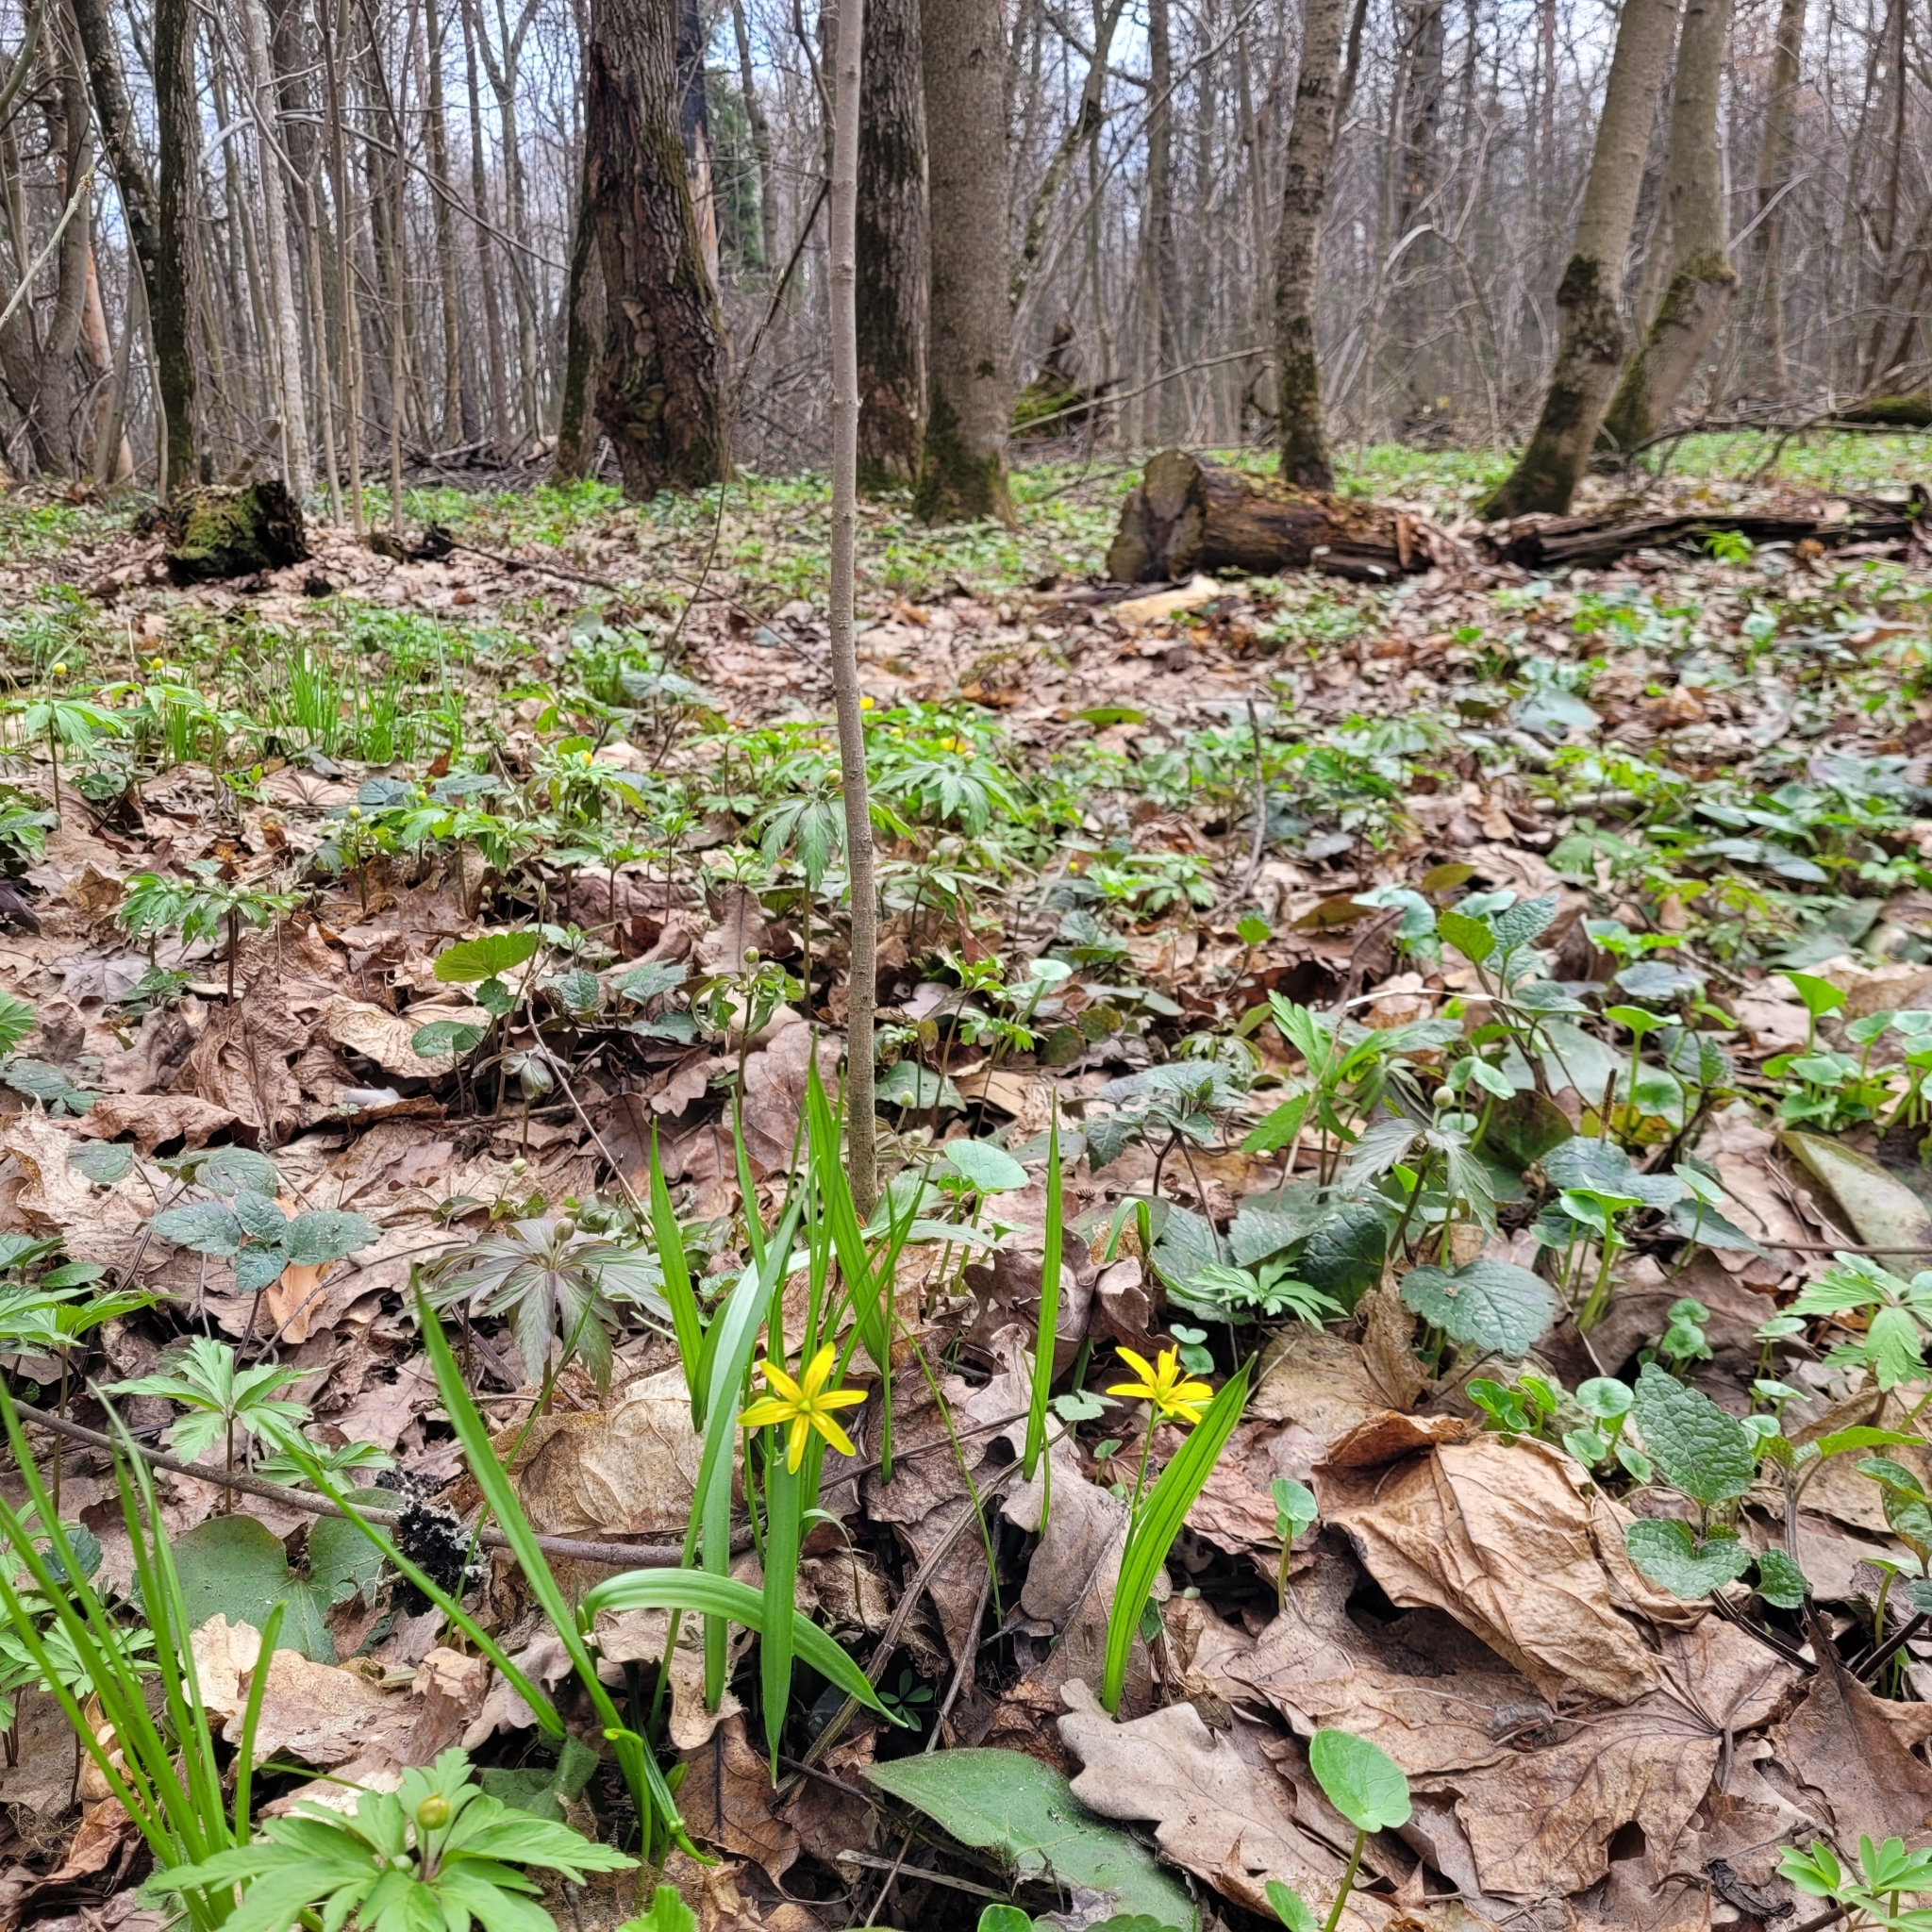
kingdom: Plantae
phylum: Tracheophyta
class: Liliopsida
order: Liliales
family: Liliaceae
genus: Gagea
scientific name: Gagea lutea
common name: Yellow star-of-bethlehem
